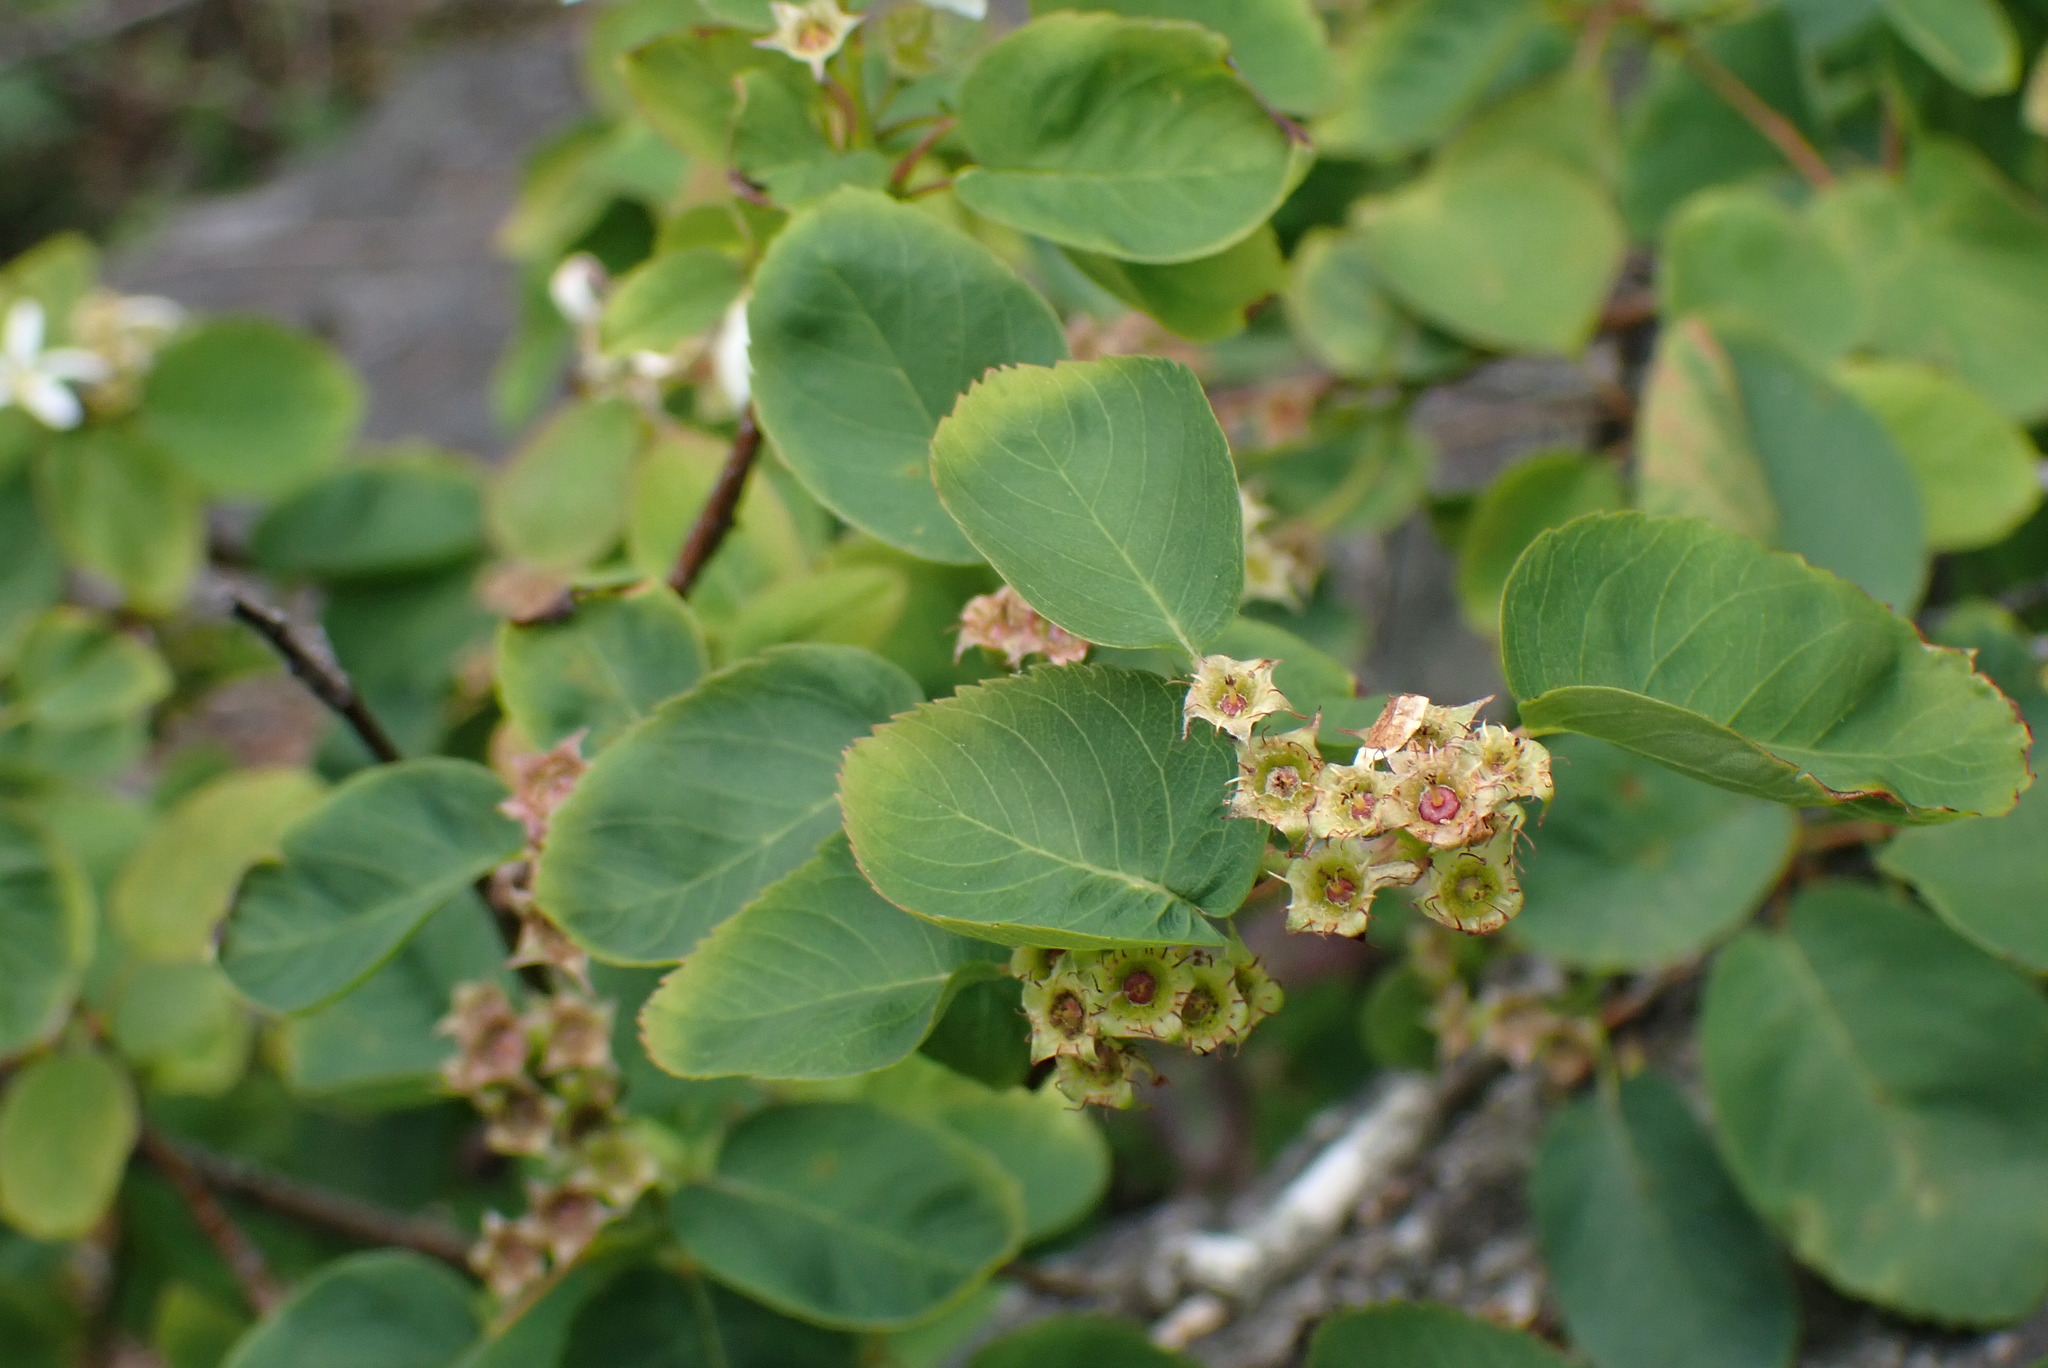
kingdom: Plantae
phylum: Tracheophyta
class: Magnoliopsida
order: Rosales
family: Rosaceae
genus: Amelanchier
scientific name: Amelanchier alnifolia
